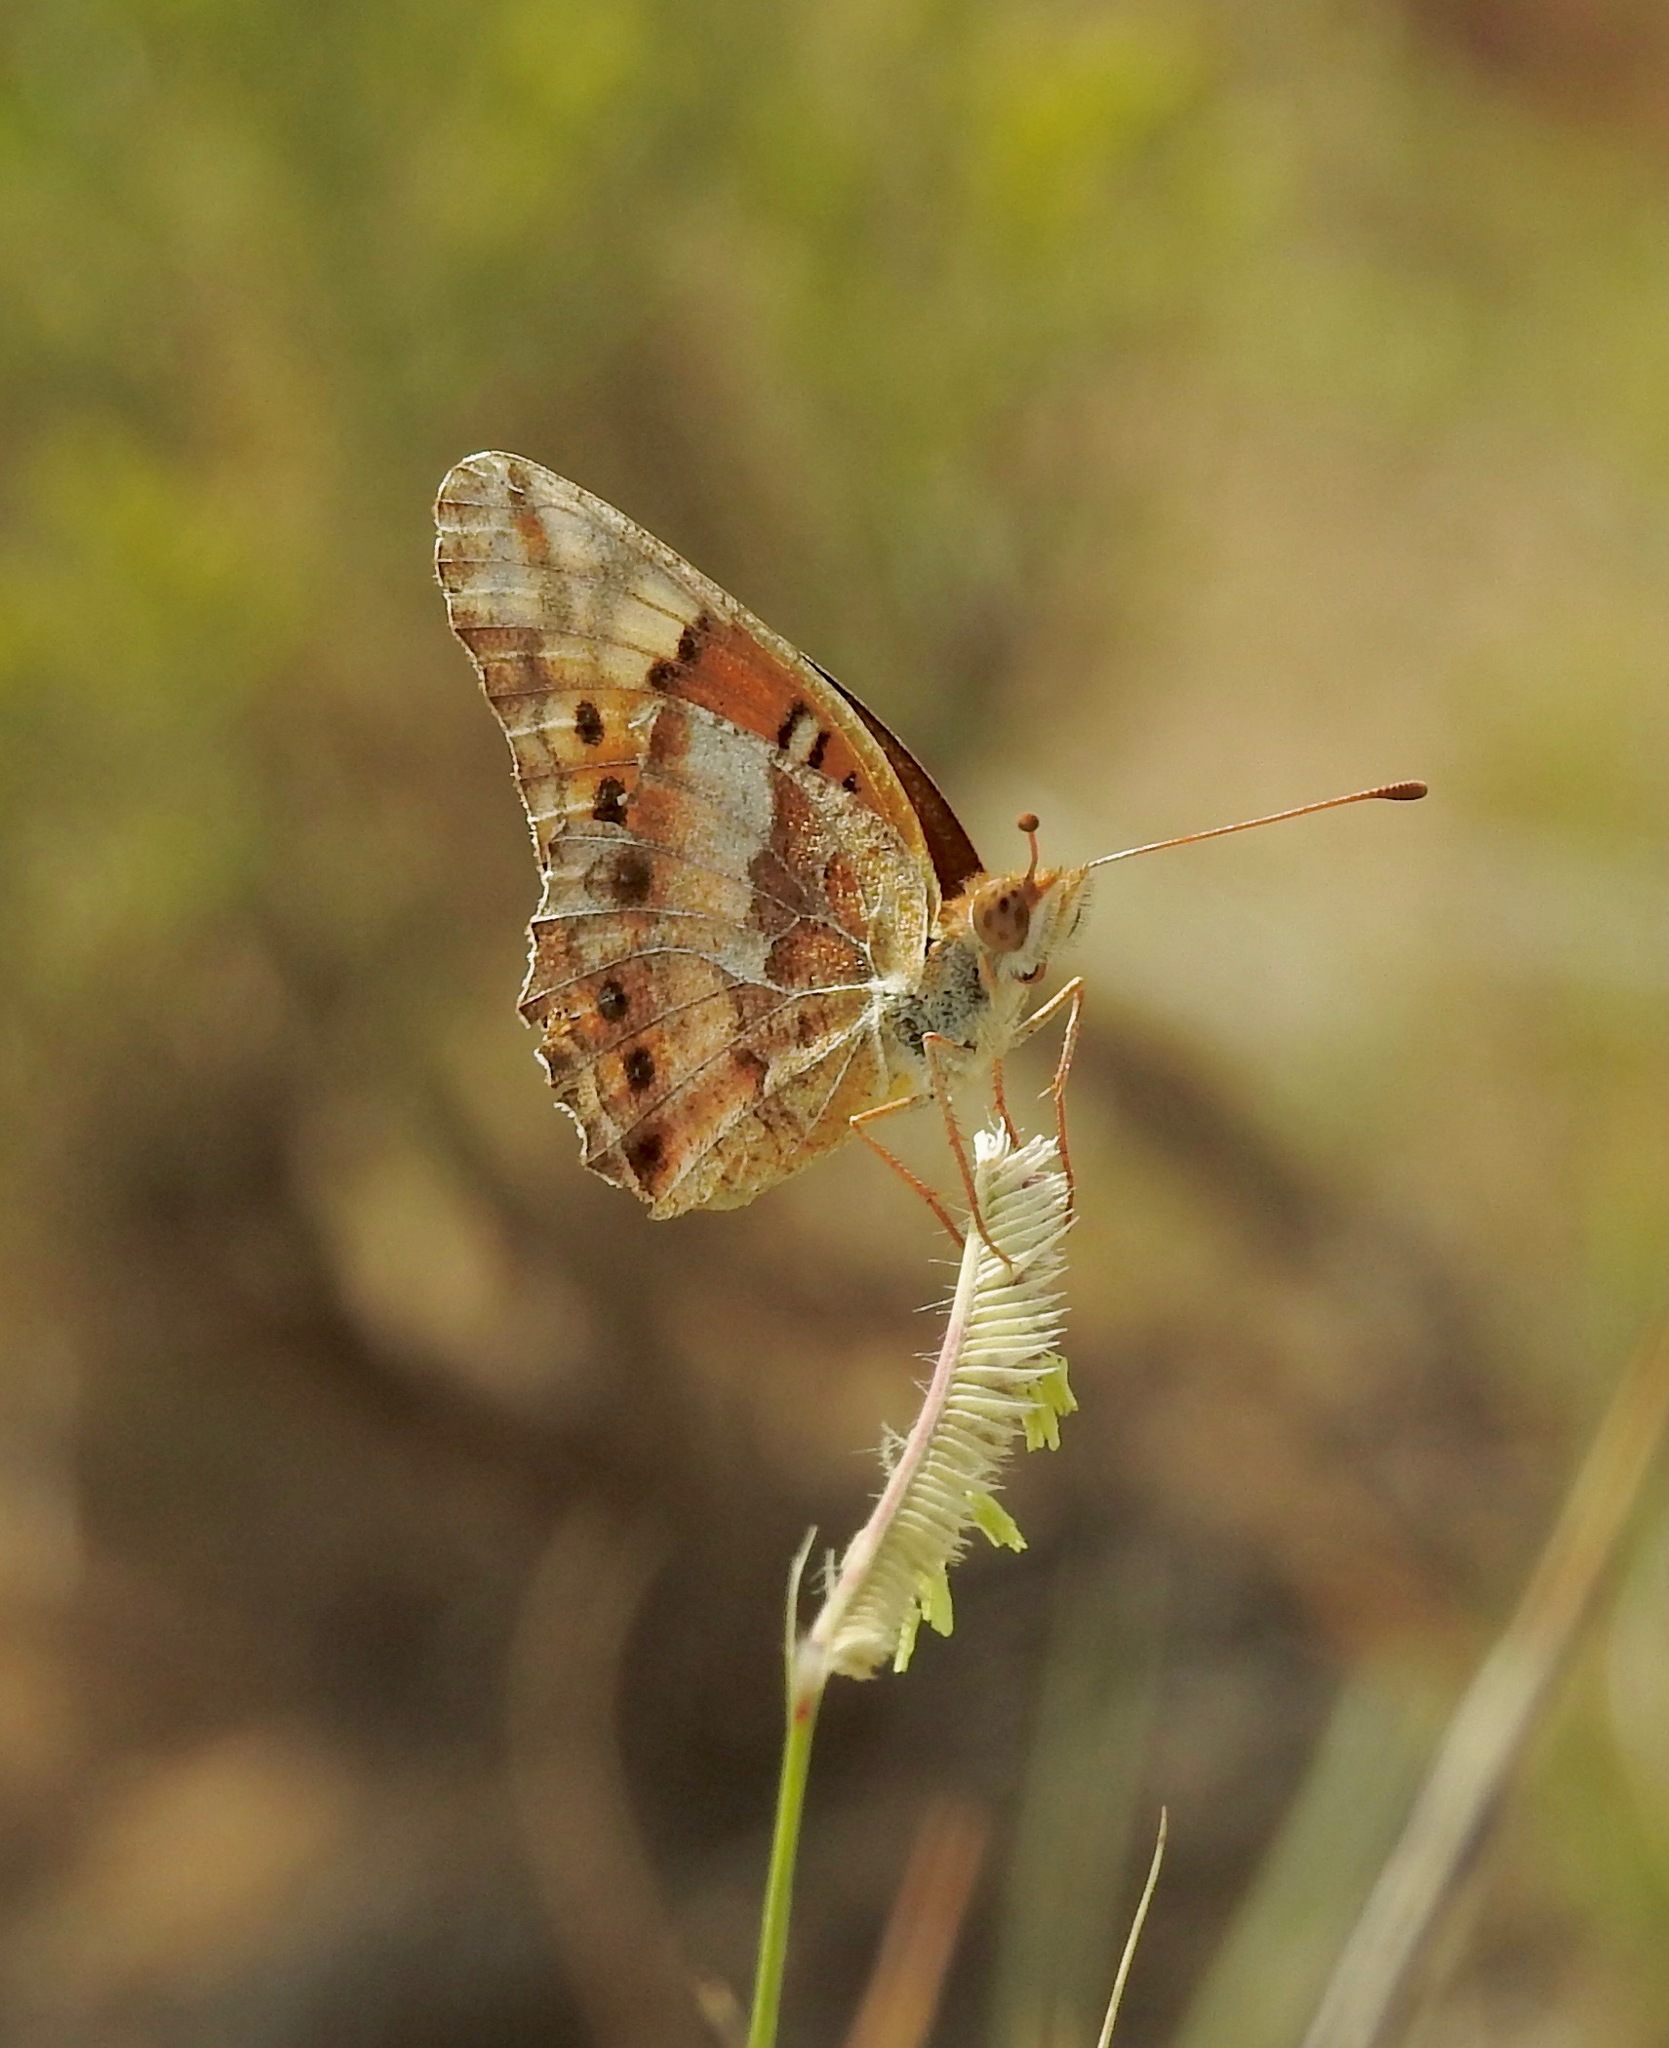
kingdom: Animalia
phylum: Arthropoda
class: Insecta
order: Lepidoptera
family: Nymphalidae
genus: Euptoieta
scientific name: Euptoieta claudia
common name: Variegated fritillary
